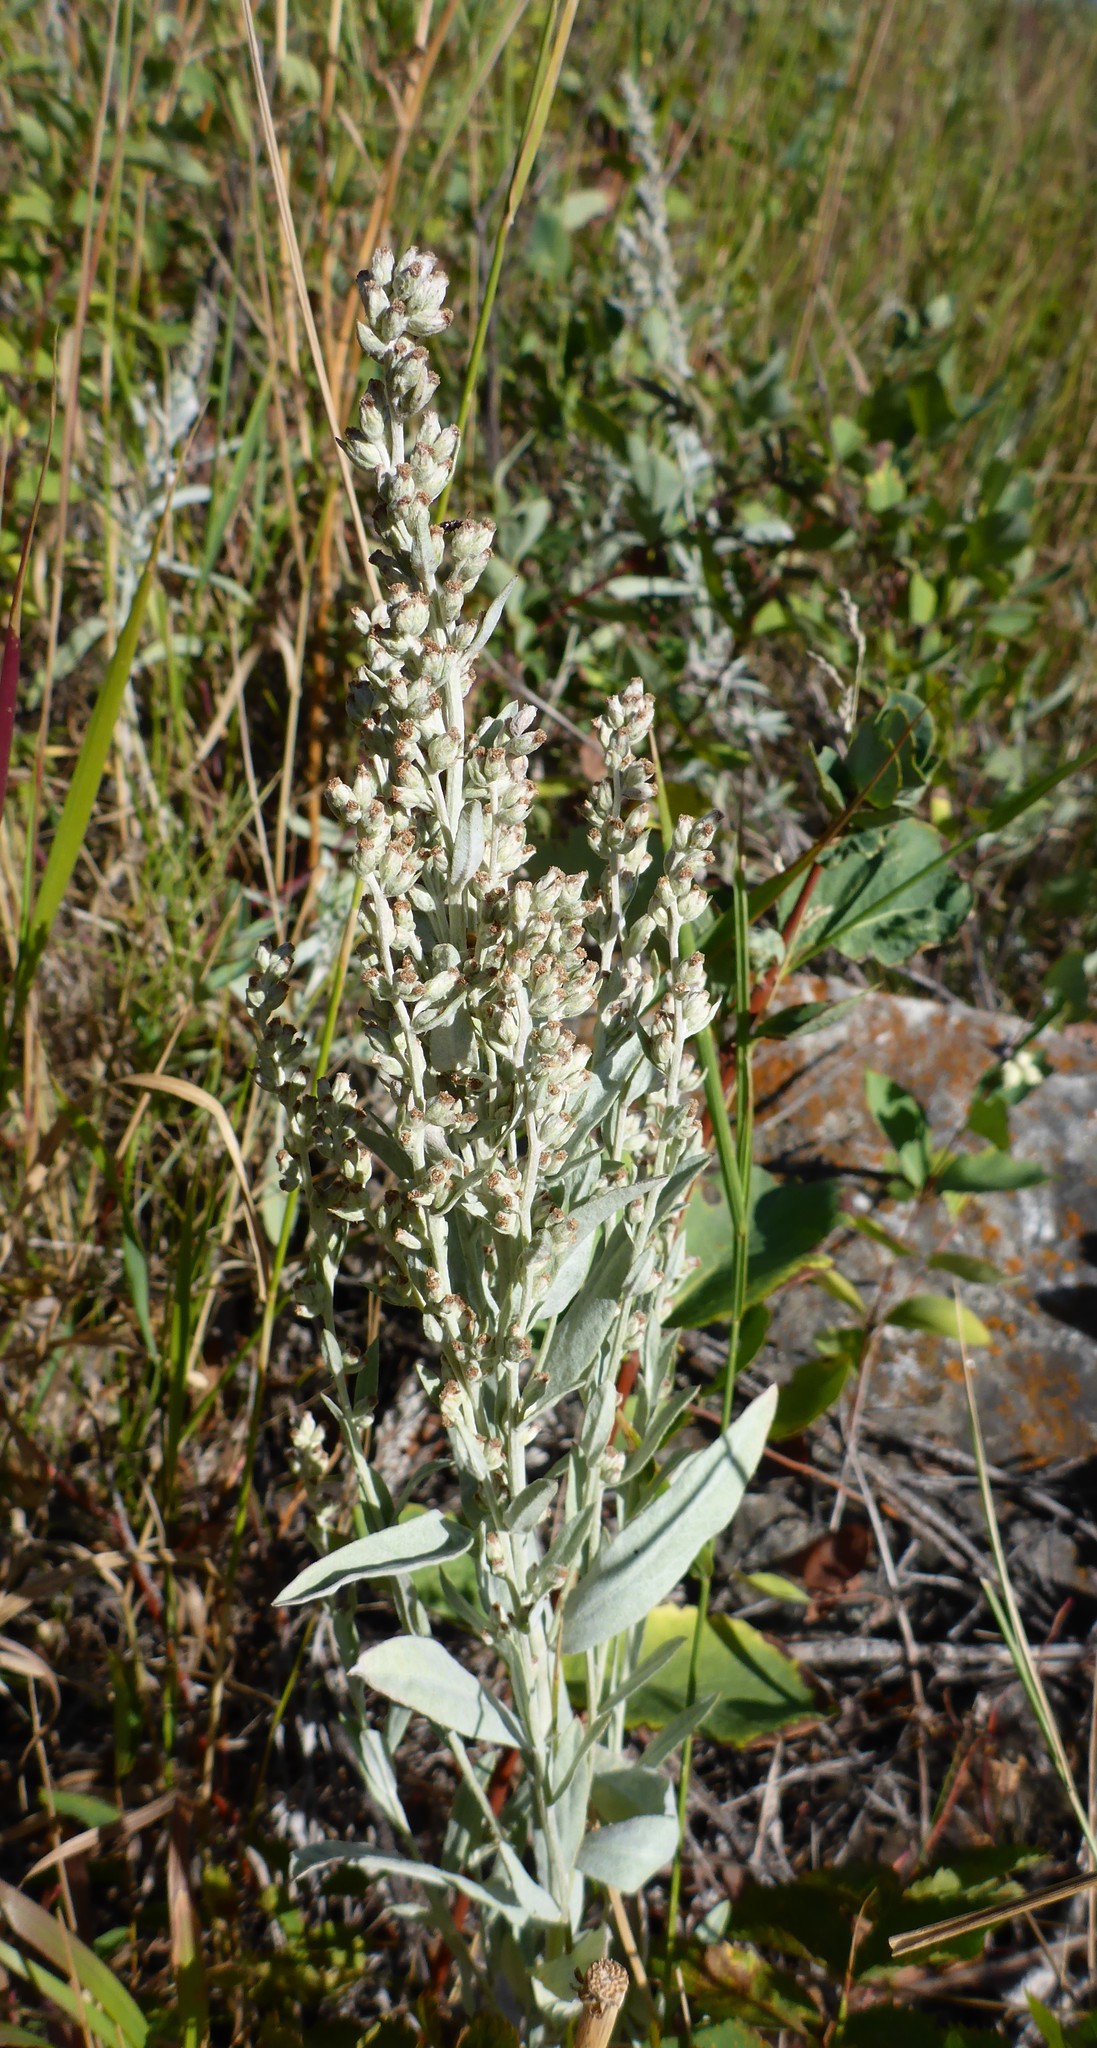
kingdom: Plantae
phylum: Tracheophyta
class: Magnoliopsida
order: Asterales
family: Asteraceae
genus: Artemisia
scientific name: Artemisia ludoviciana
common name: Western mugwort
